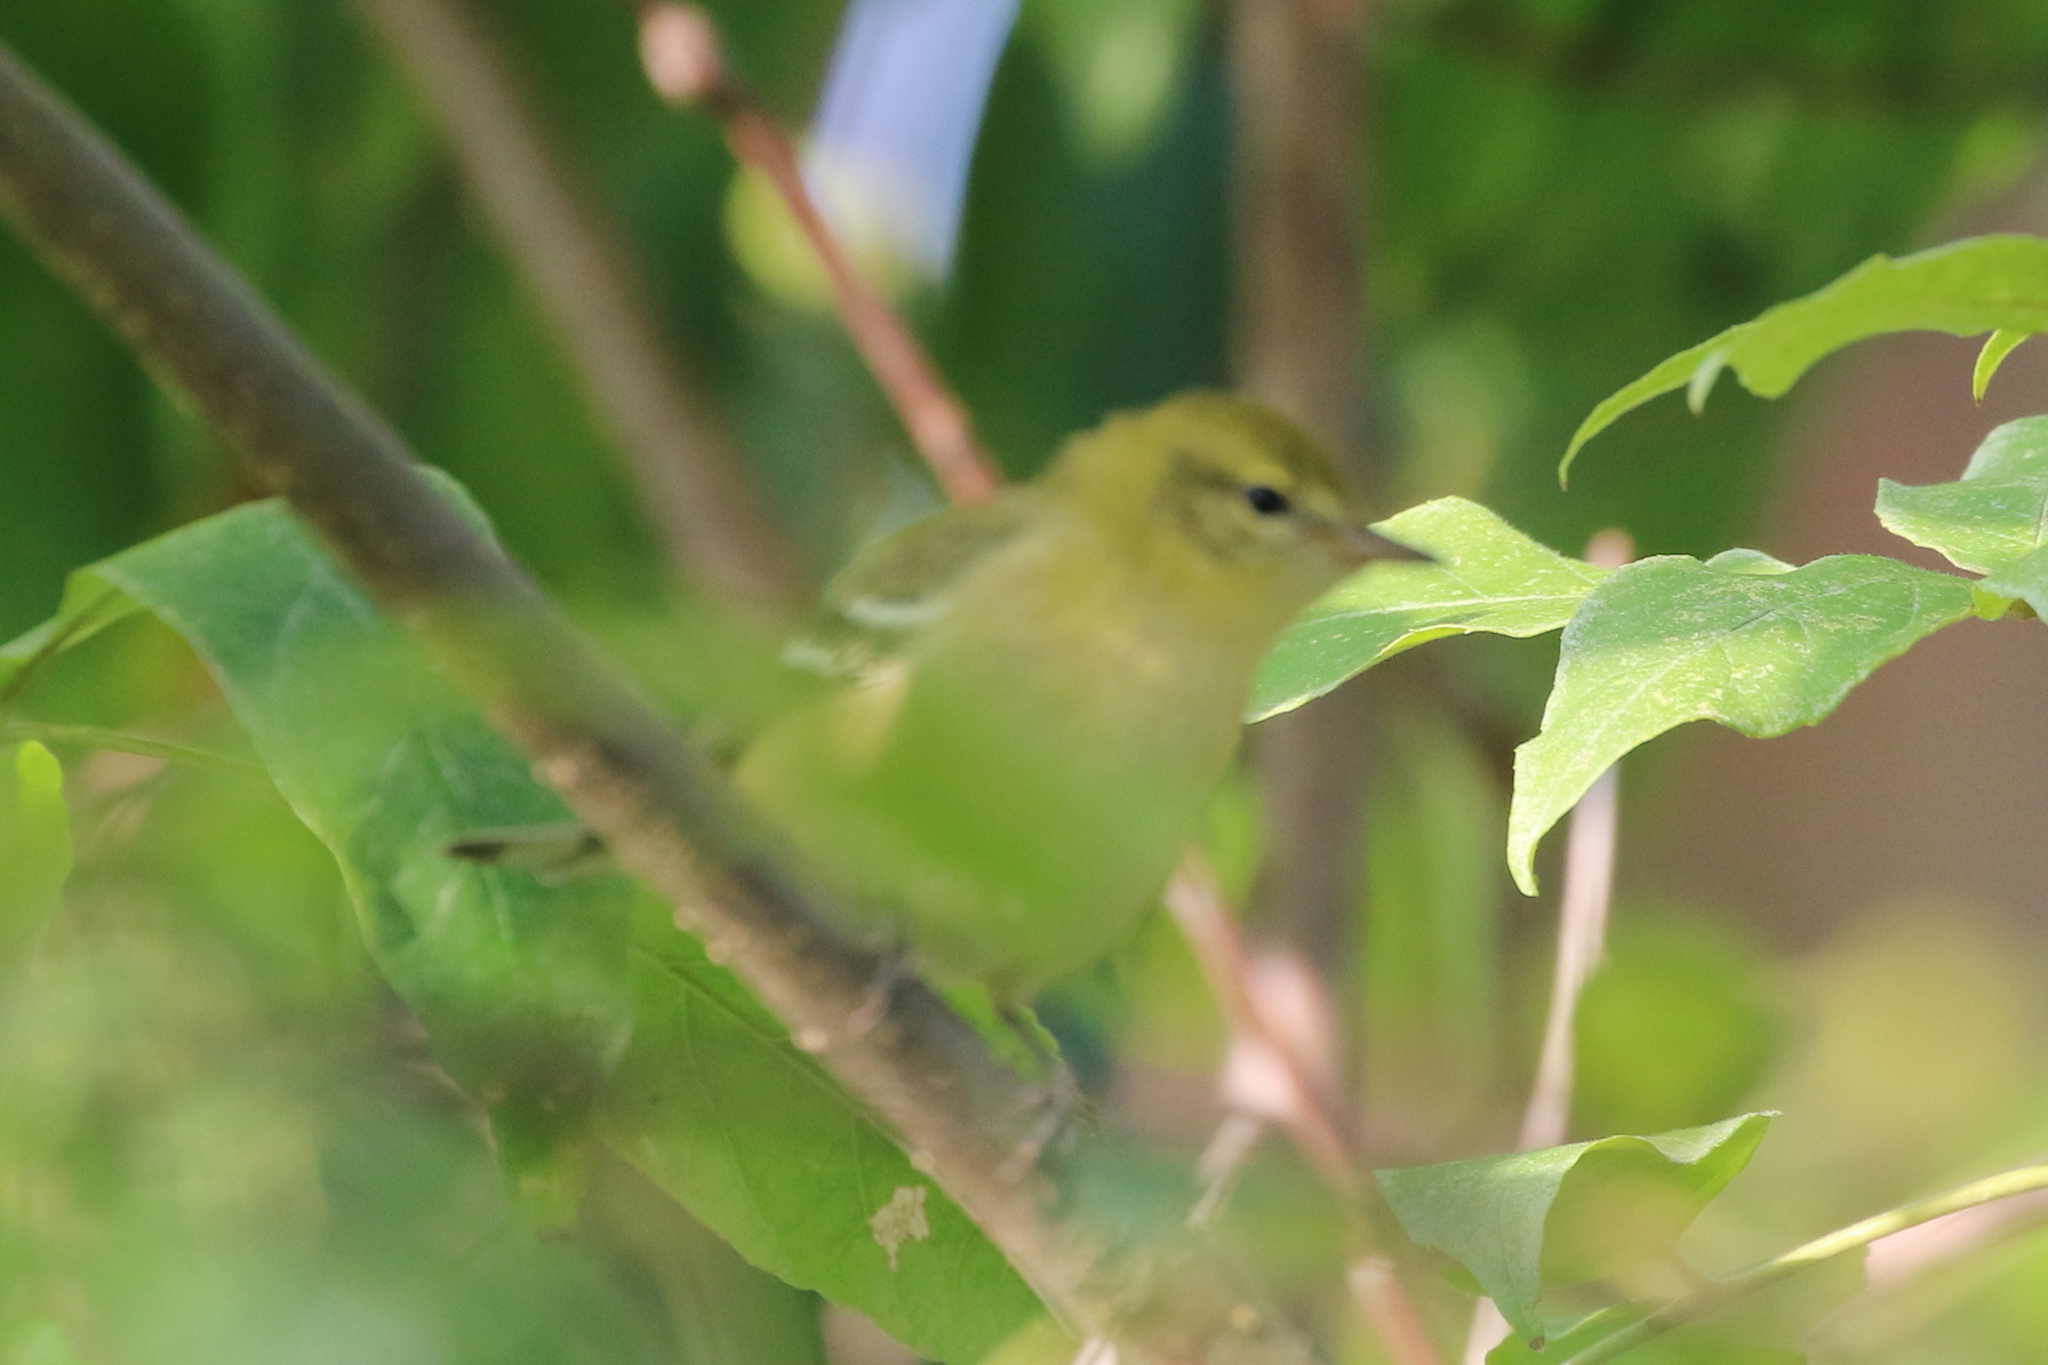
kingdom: Animalia
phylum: Chordata
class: Aves
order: Passeriformes
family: Parulidae
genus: Setophaga
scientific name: Setophaga castanea
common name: Bay-breasted warbler
